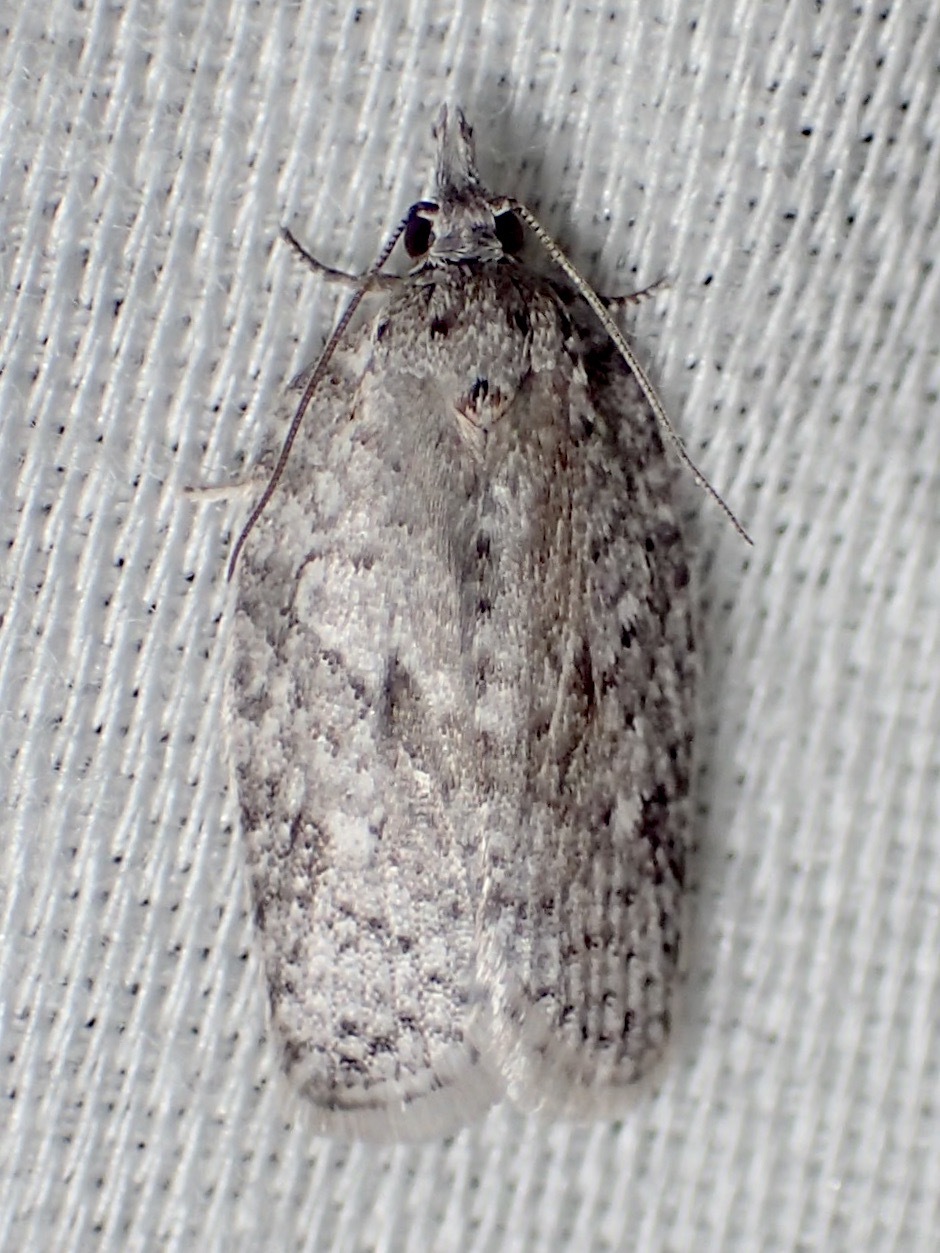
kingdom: Animalia
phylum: Arthropoda
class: Insecta
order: Lepidoptera
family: Tortricidae
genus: Isotenes
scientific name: Isotenes miserana
